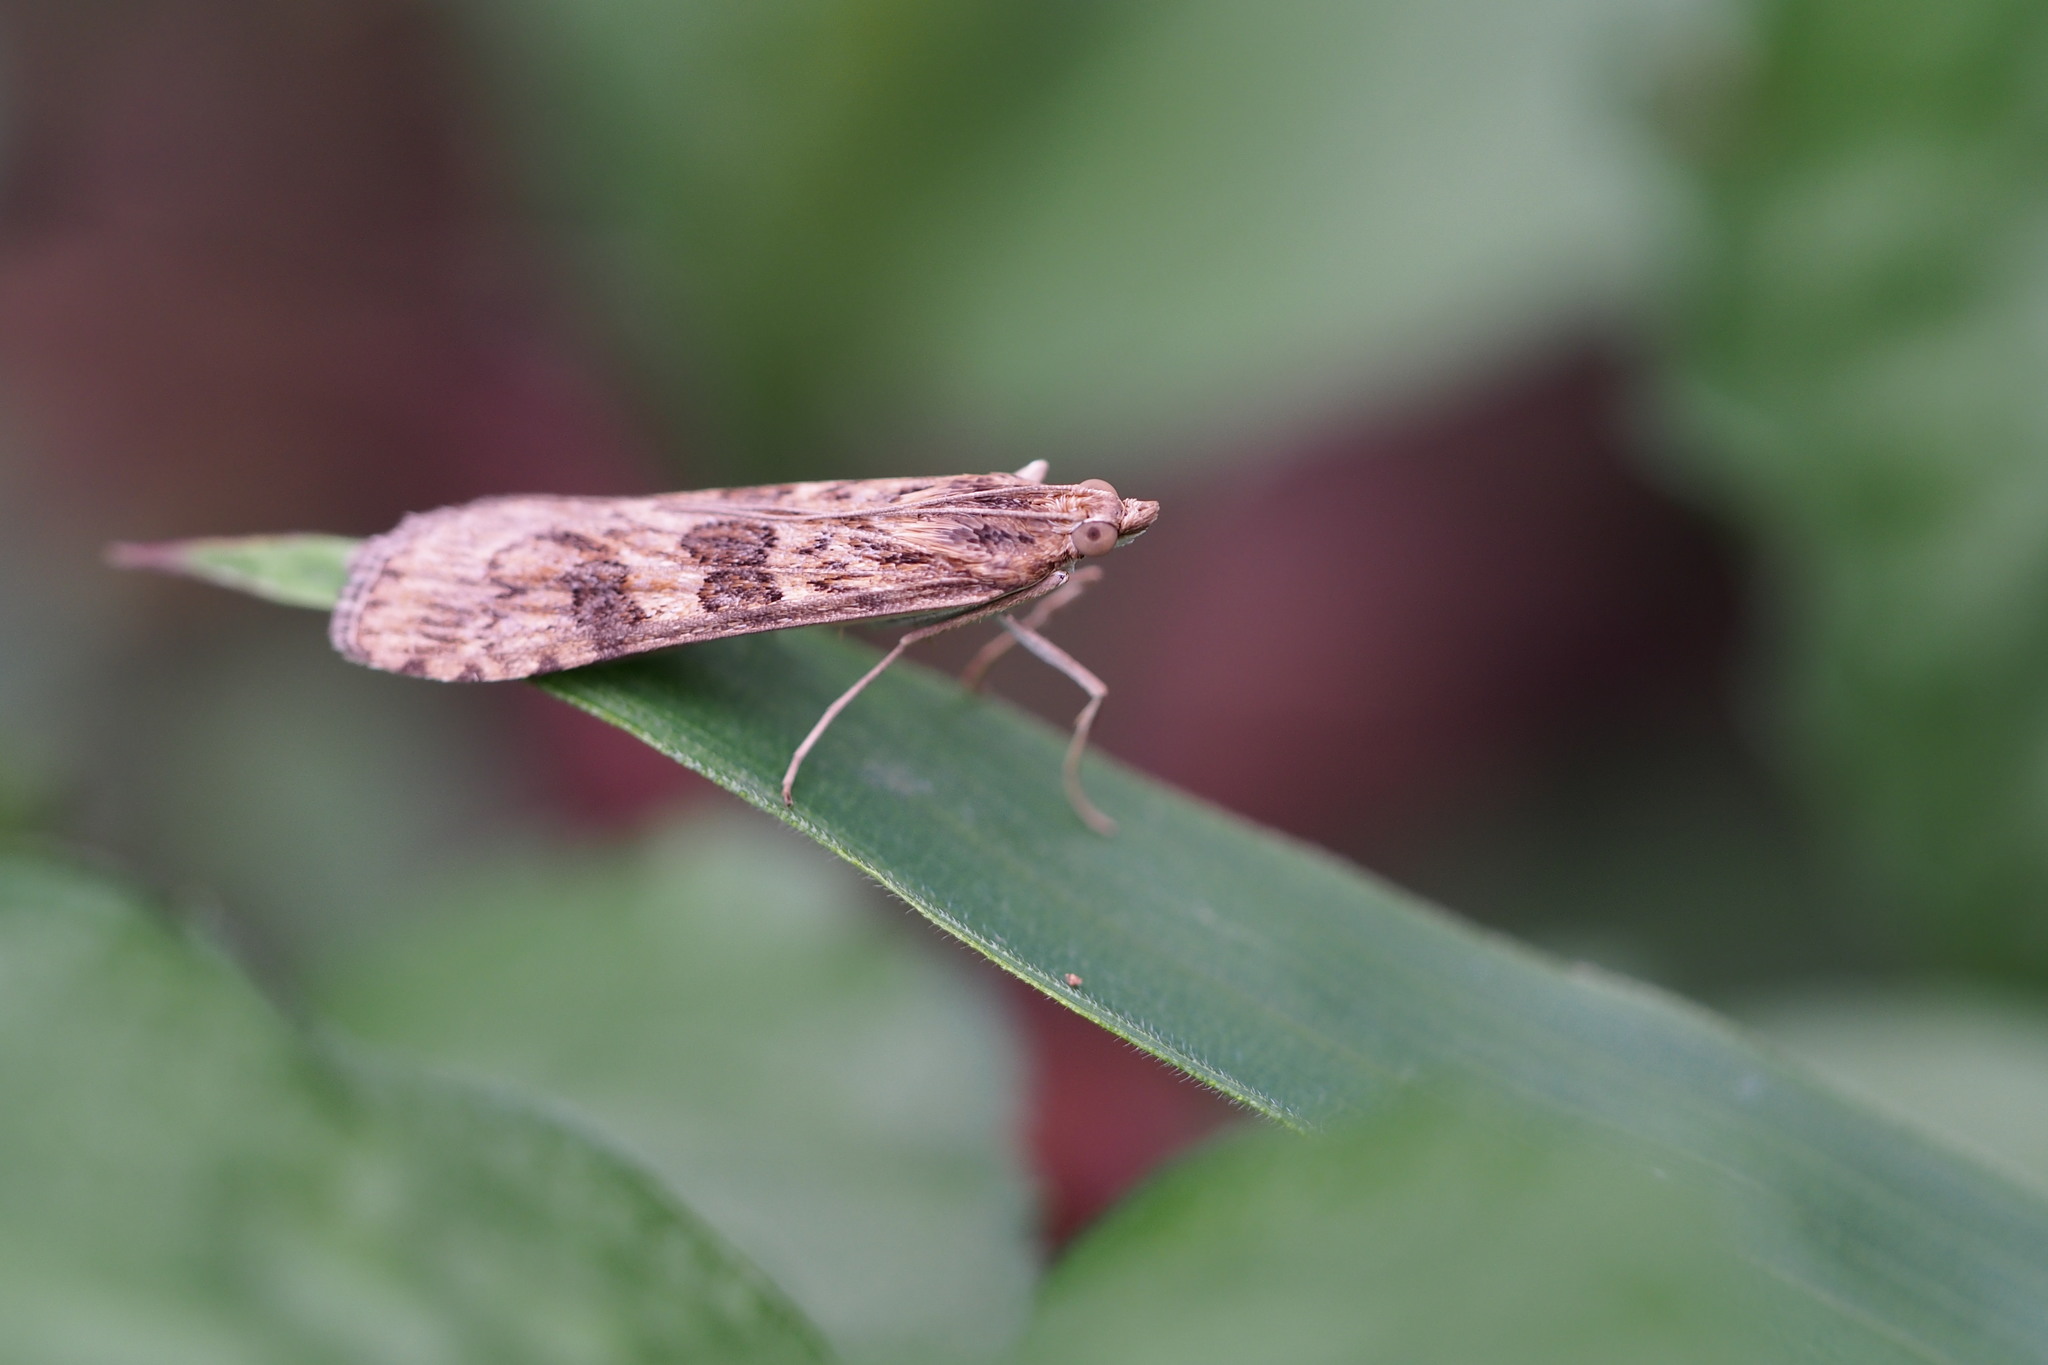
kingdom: Animalia
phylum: Arthropoda
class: Insecta
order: Lepidoptera
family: Crambidae
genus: Nomophila
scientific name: Nomophila noctuella
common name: Rush veneer
